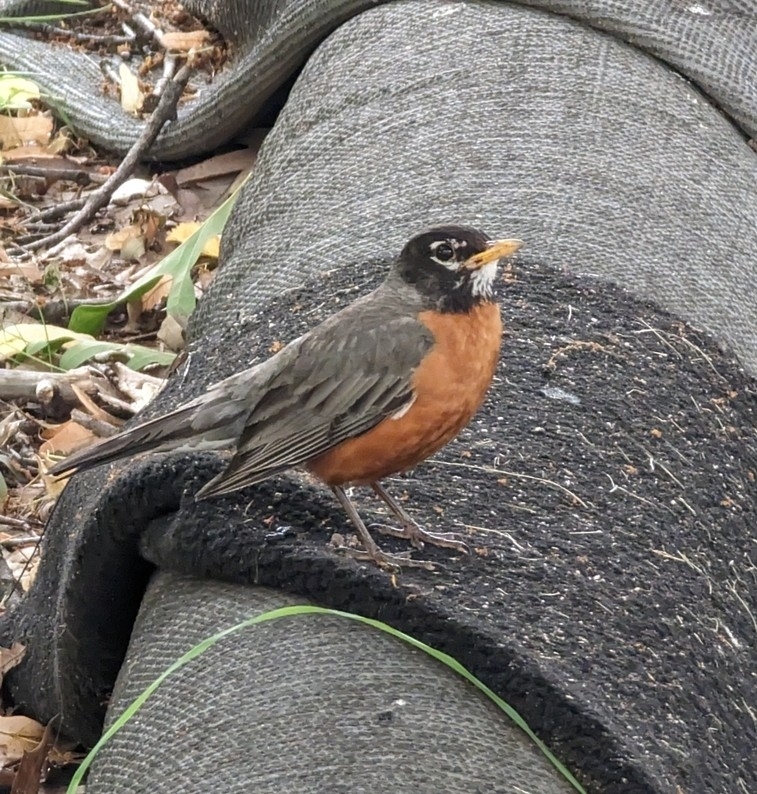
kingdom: Animalia
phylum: Chordata
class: Aves
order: Passeriformes
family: Turdidae
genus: Turdus
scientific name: Turdus migratorius
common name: American robin
